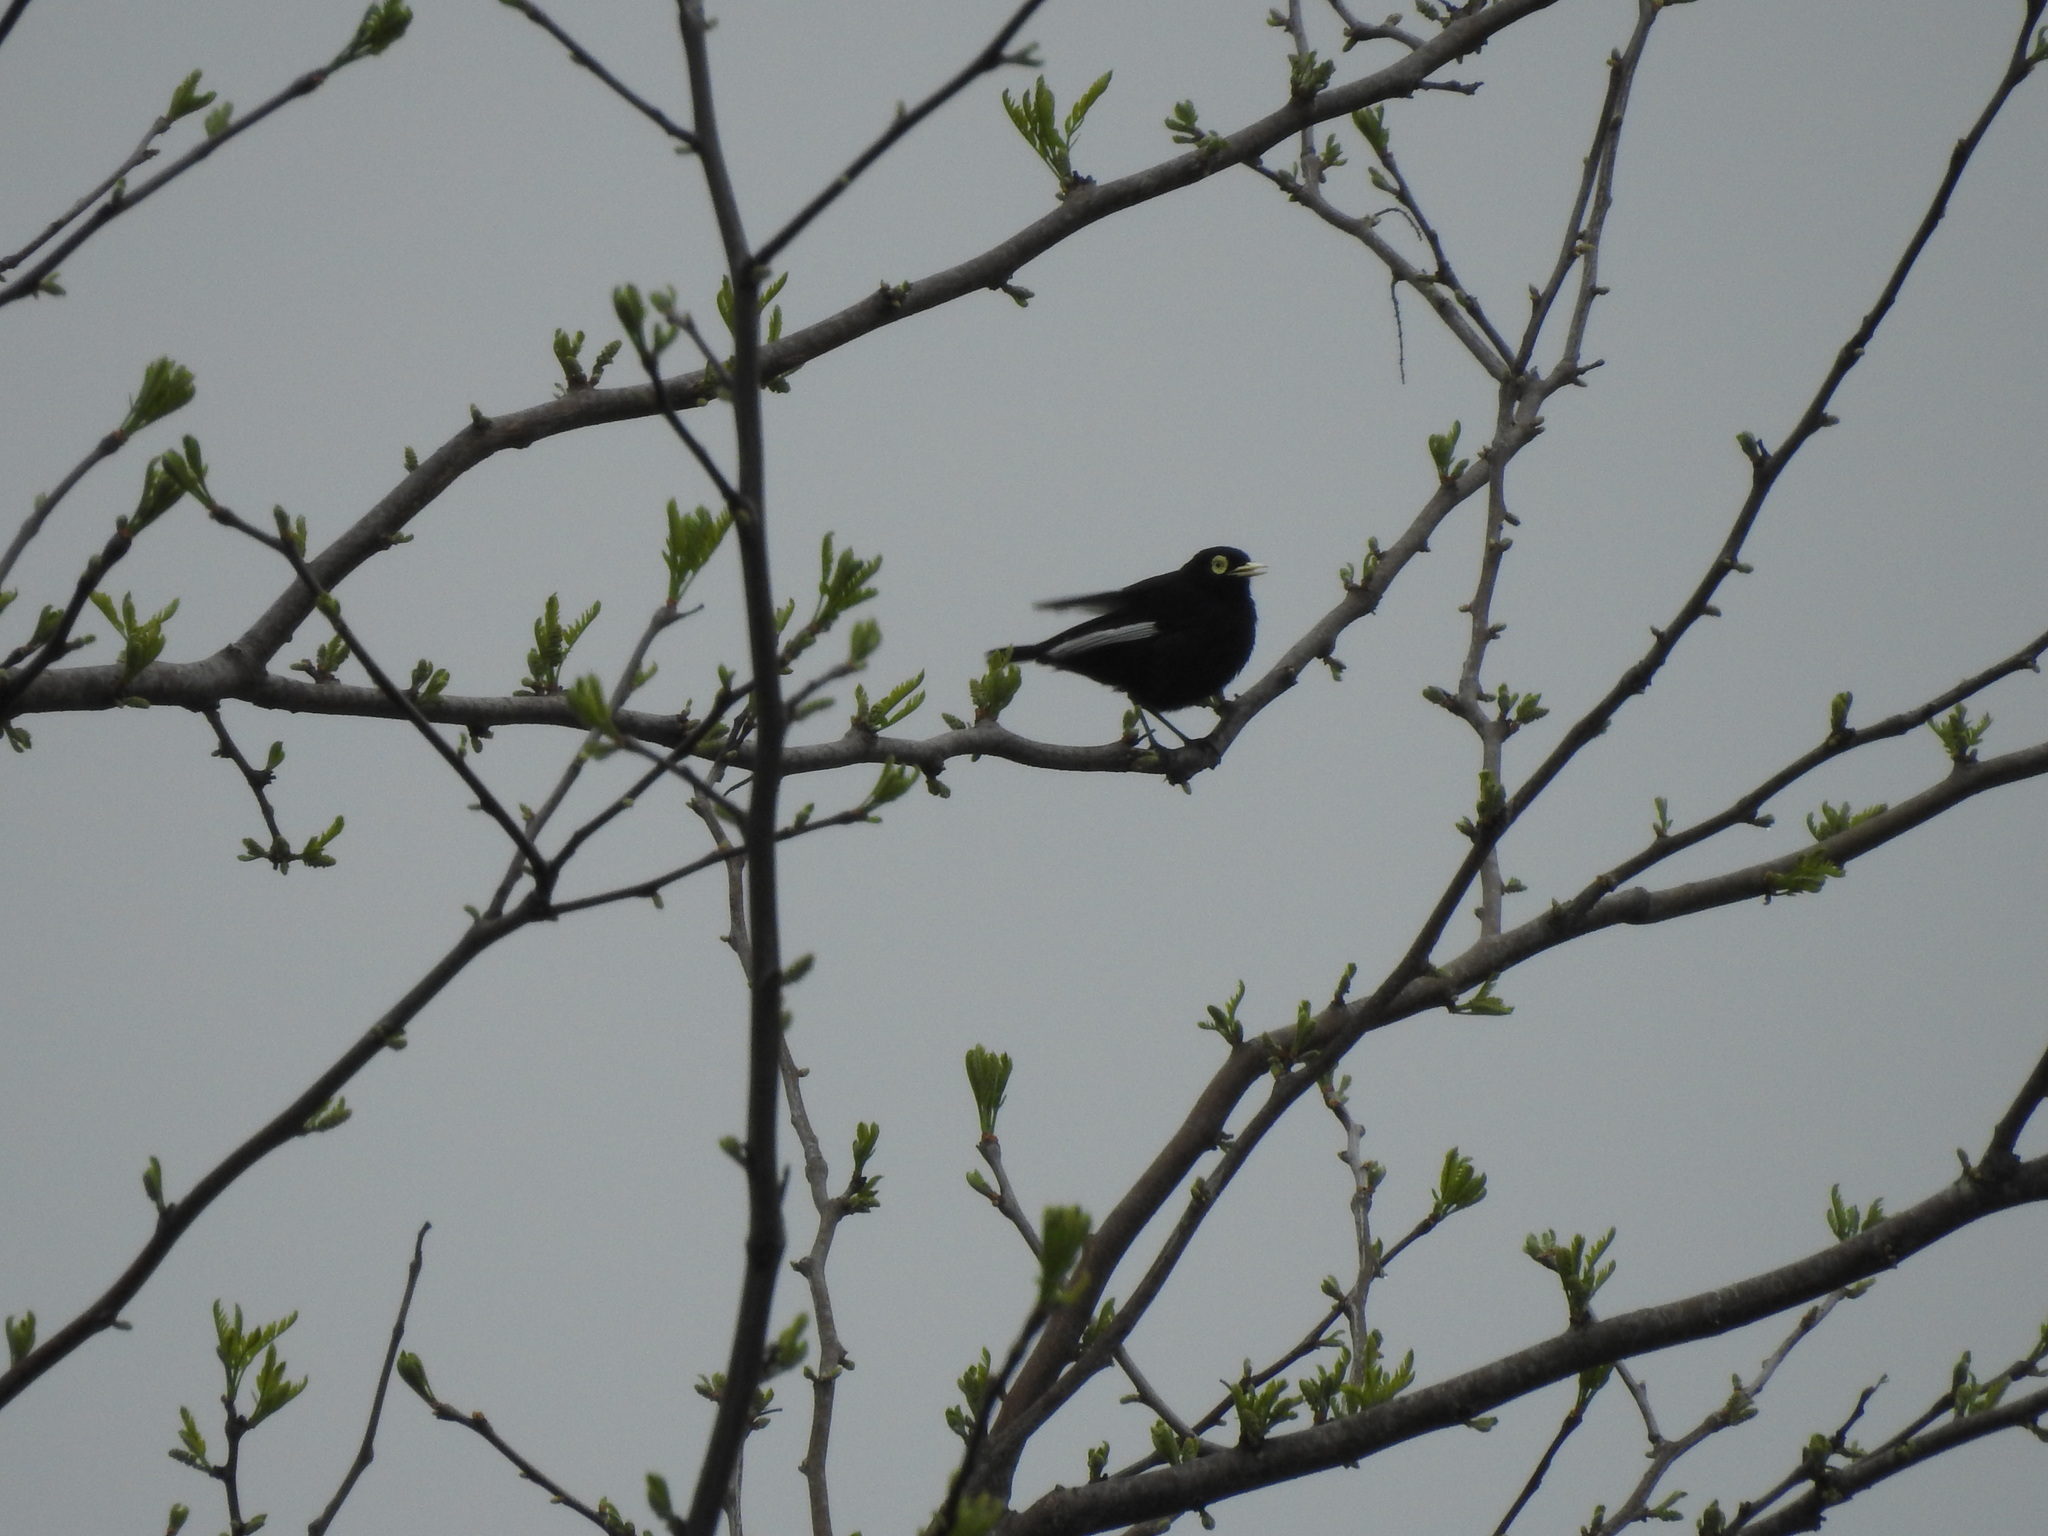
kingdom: Animalia
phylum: Chordata
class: Aves
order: Passeriformes
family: Tyrannidae
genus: Hymenops
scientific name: Hymenops perspicillatus
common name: Spectacled tyrant
